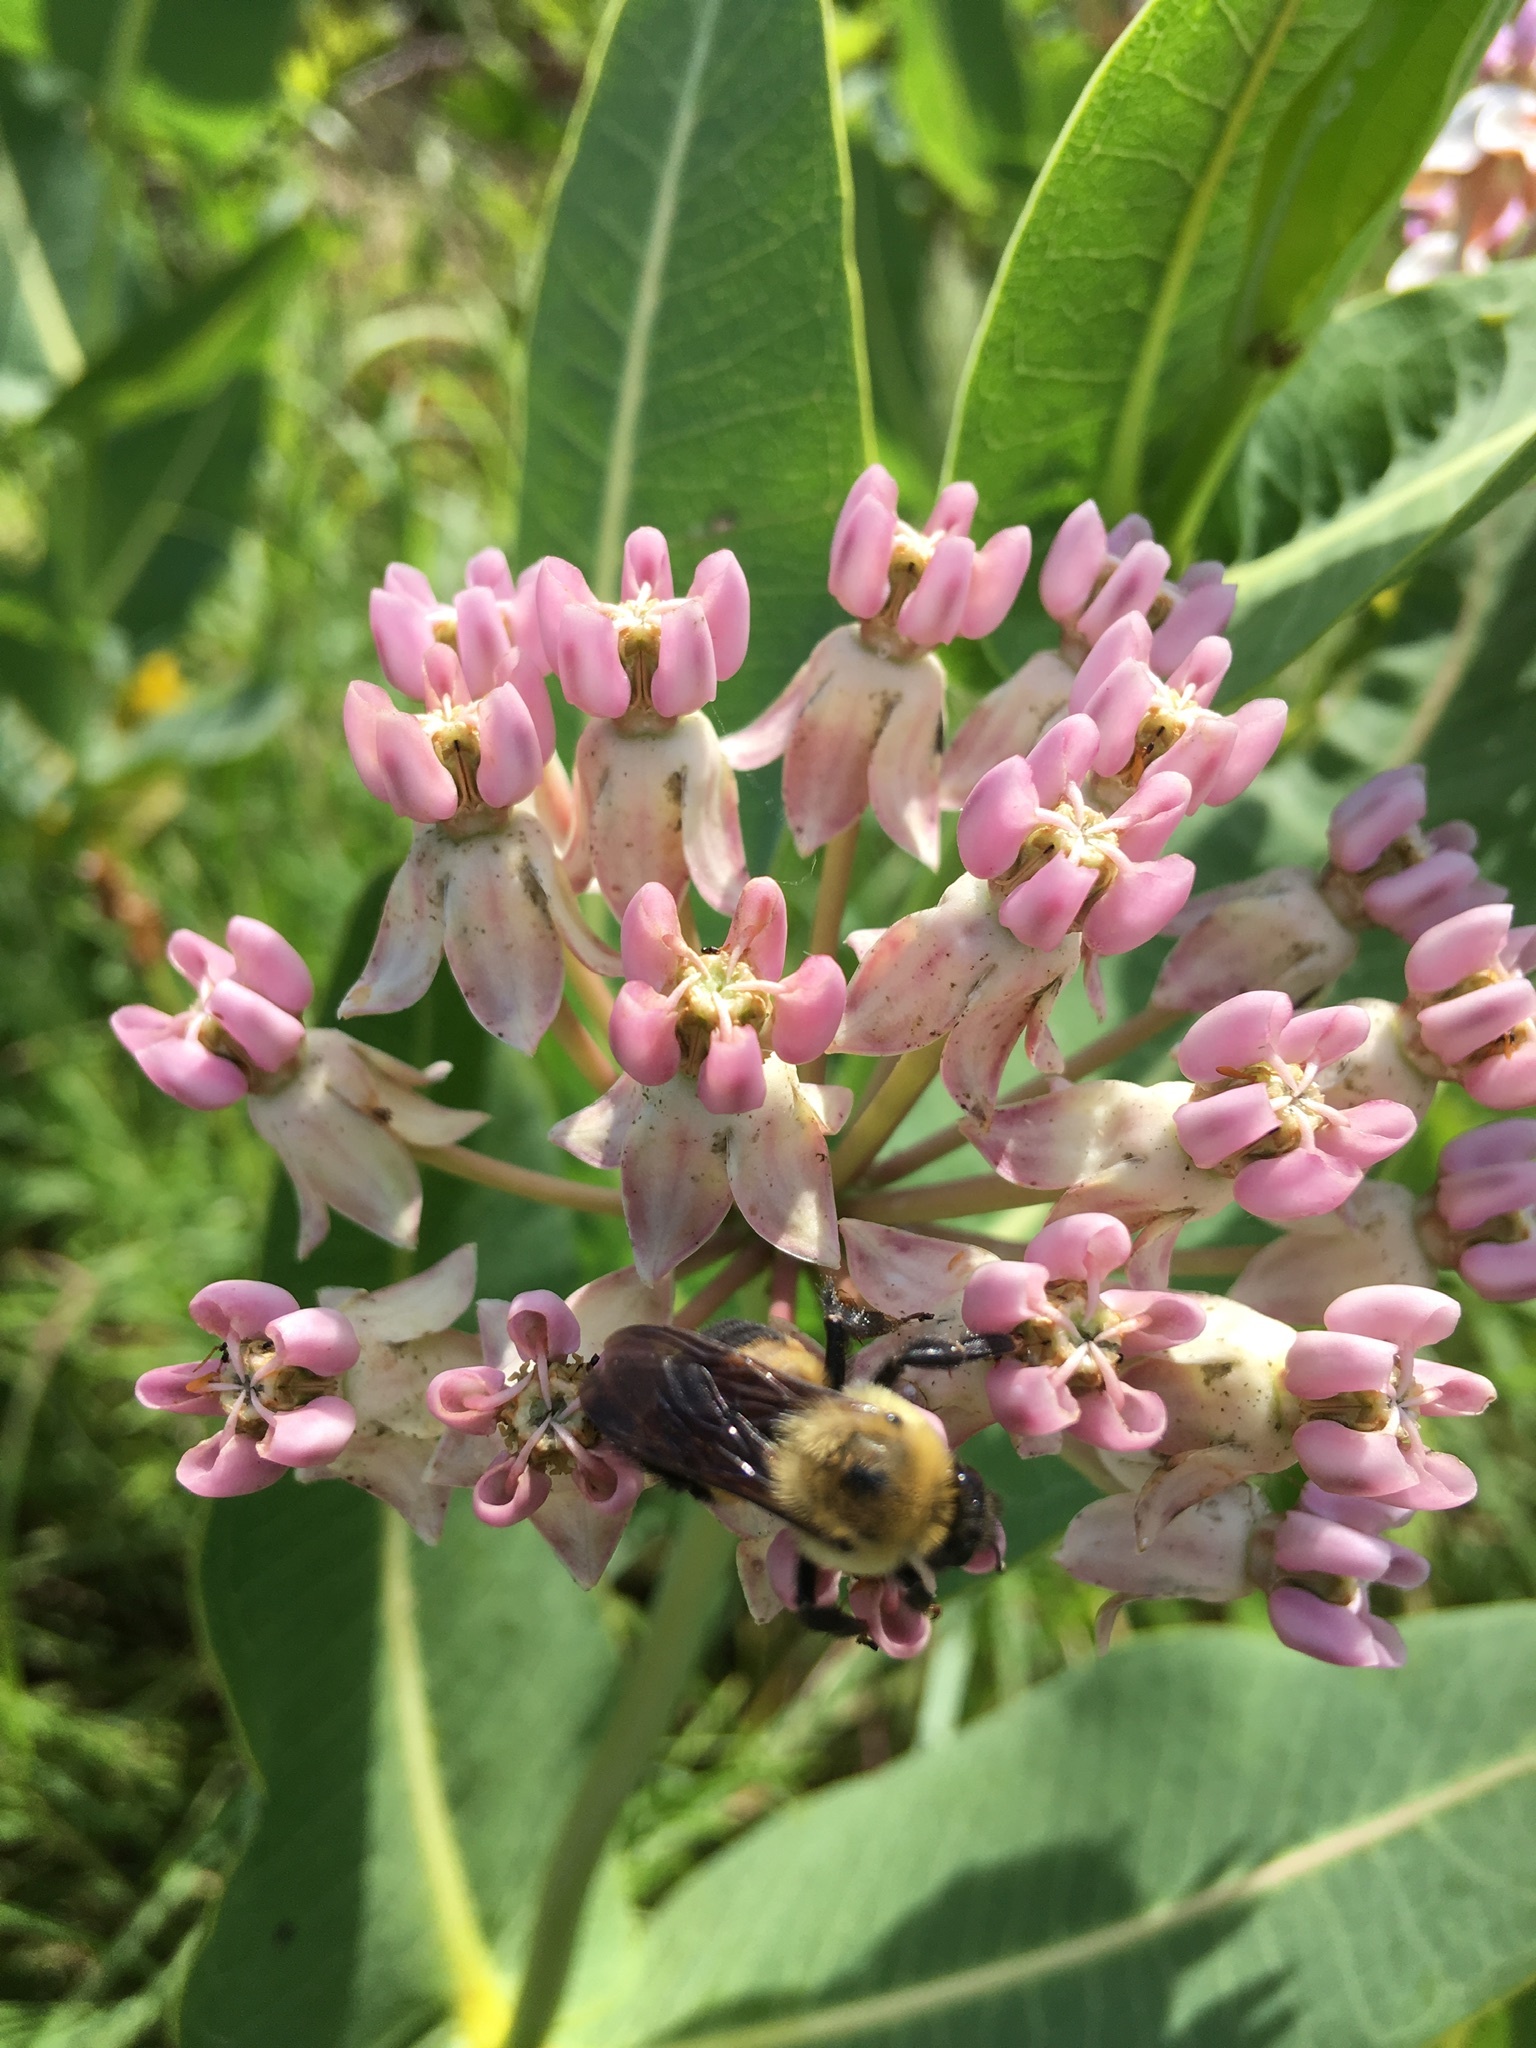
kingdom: Animalia
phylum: Arthropoda
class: Insecta
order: Hymenoptera
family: Apidae
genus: Bombus
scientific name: Bombus griseocollis
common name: Brown-belted bumble bee
